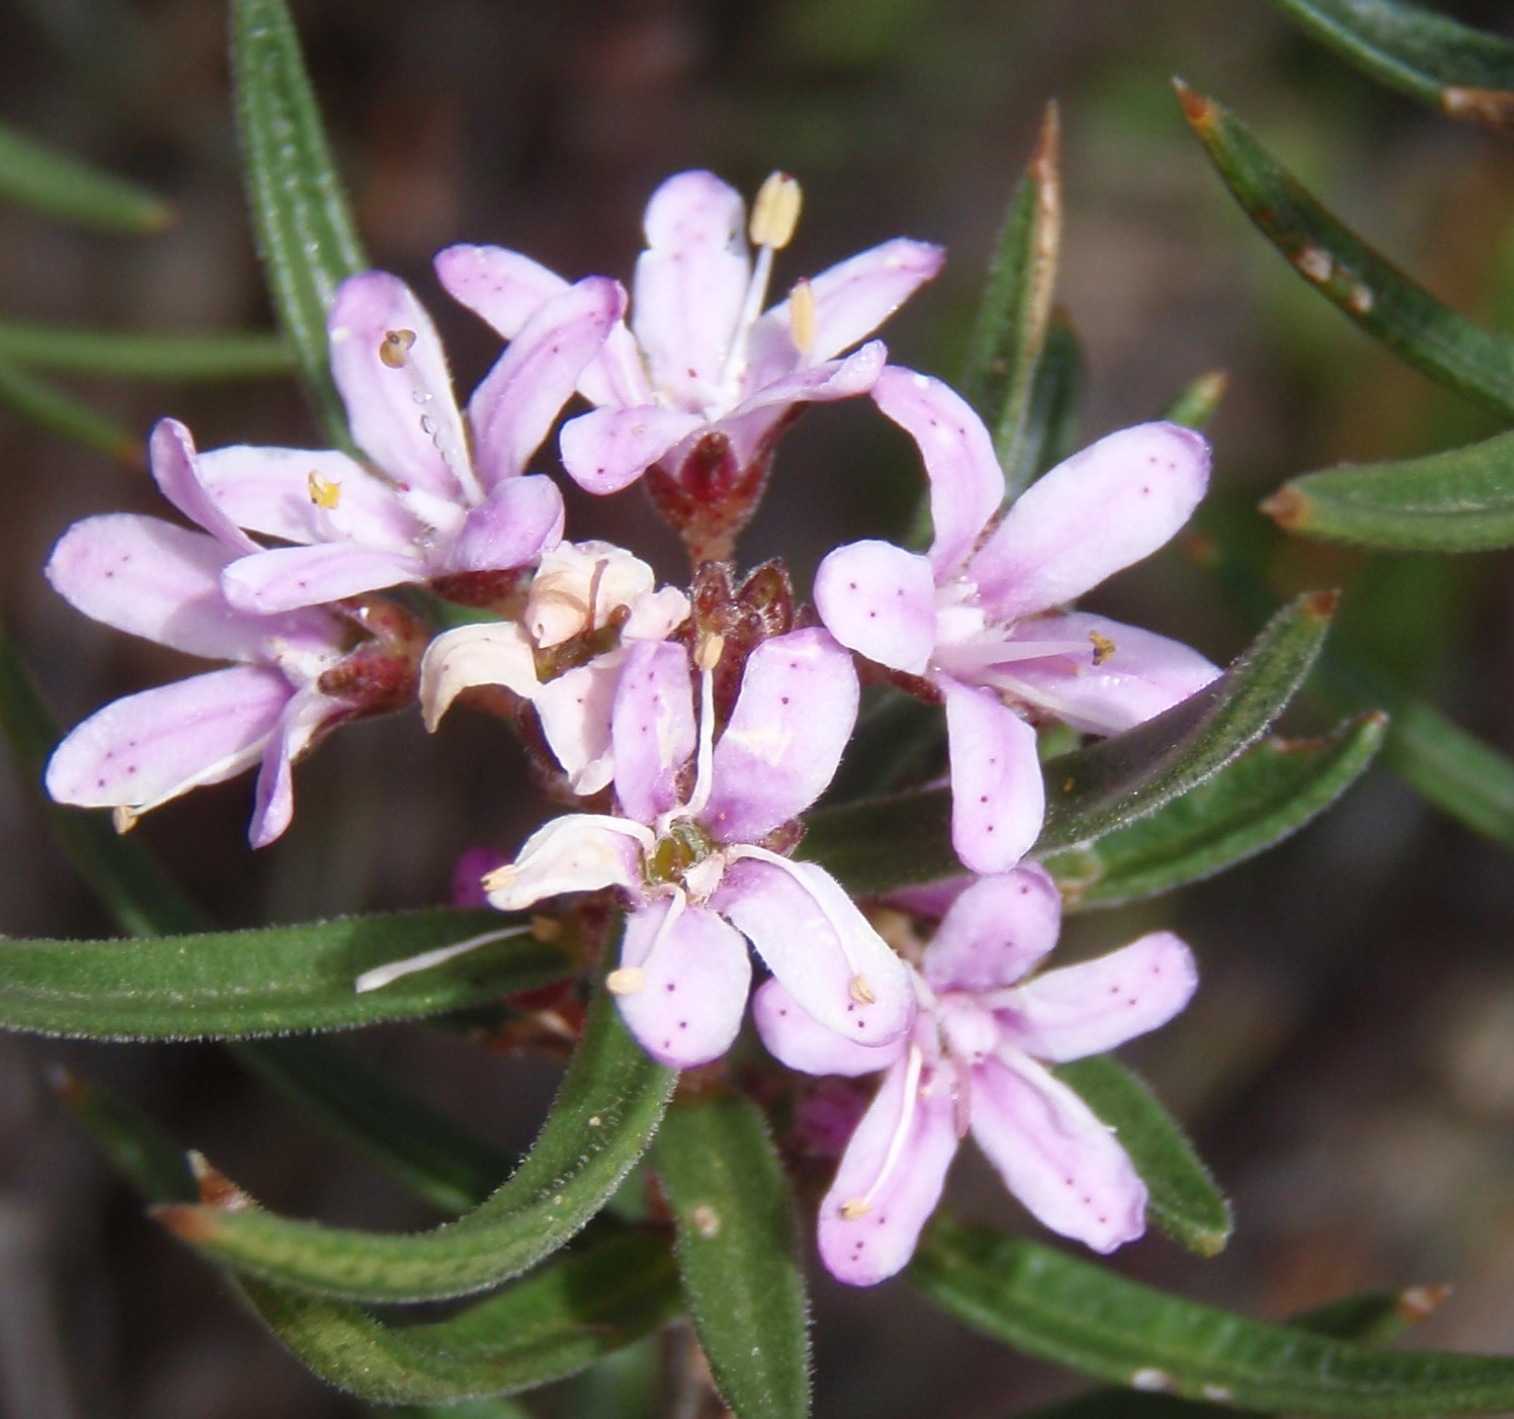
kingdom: Plantae
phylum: Tracheophyta
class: Magnoliopsida
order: Sapindales
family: Rutaceae
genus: Agathosma
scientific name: Agathosma pungens
